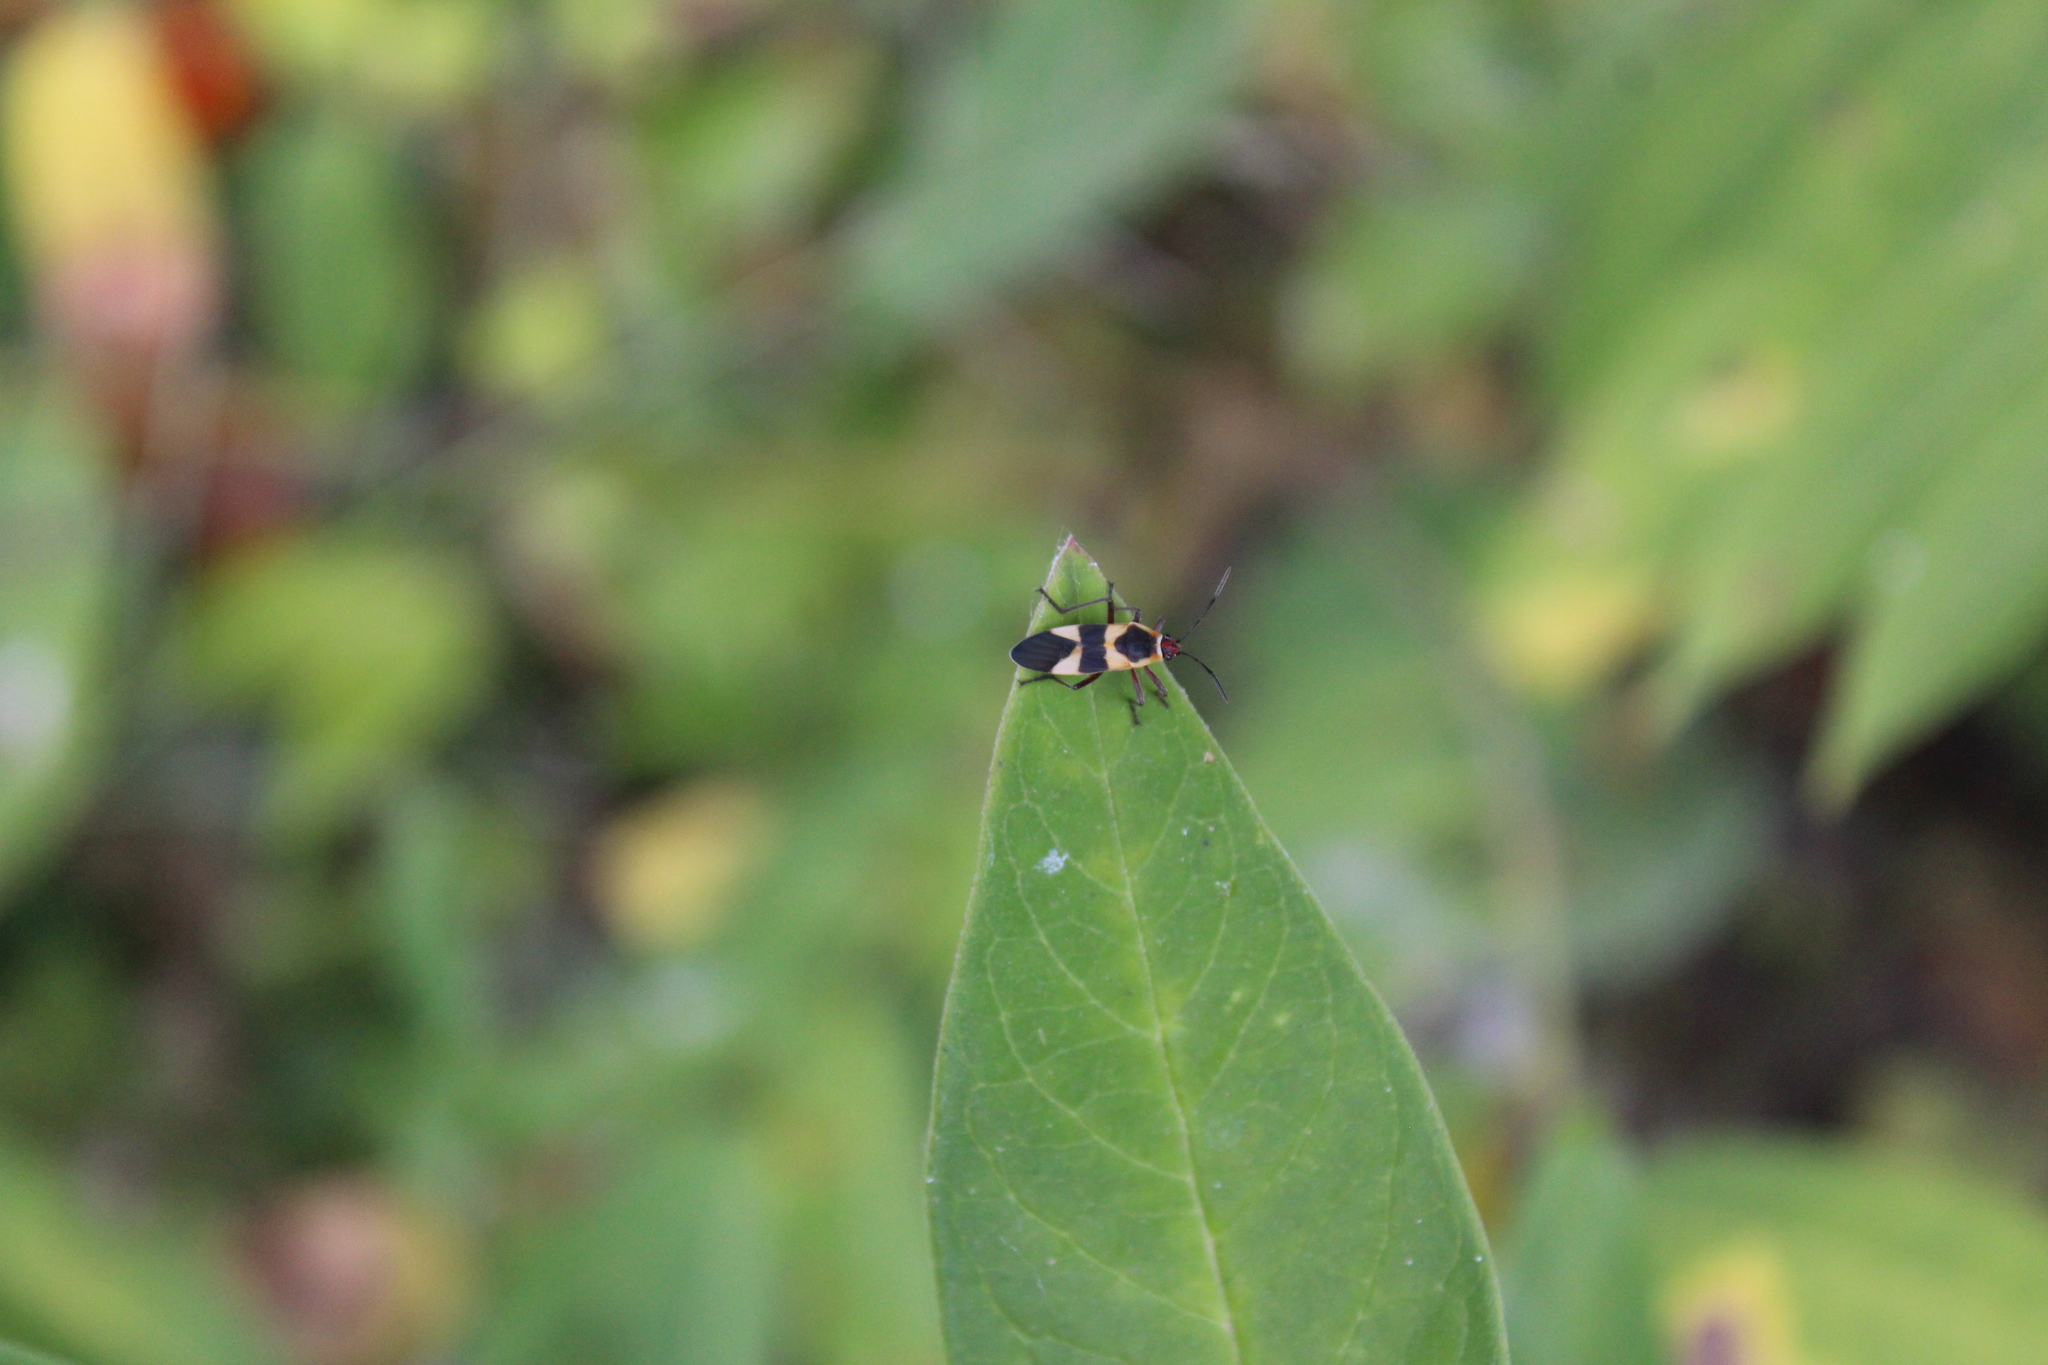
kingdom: Animalia
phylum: Arthropoda
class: Insecta
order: Hemiptera
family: Lygaeidae
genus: Oncopeltus
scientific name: Oncopeltus cingulifer
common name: Lygaeid bug
